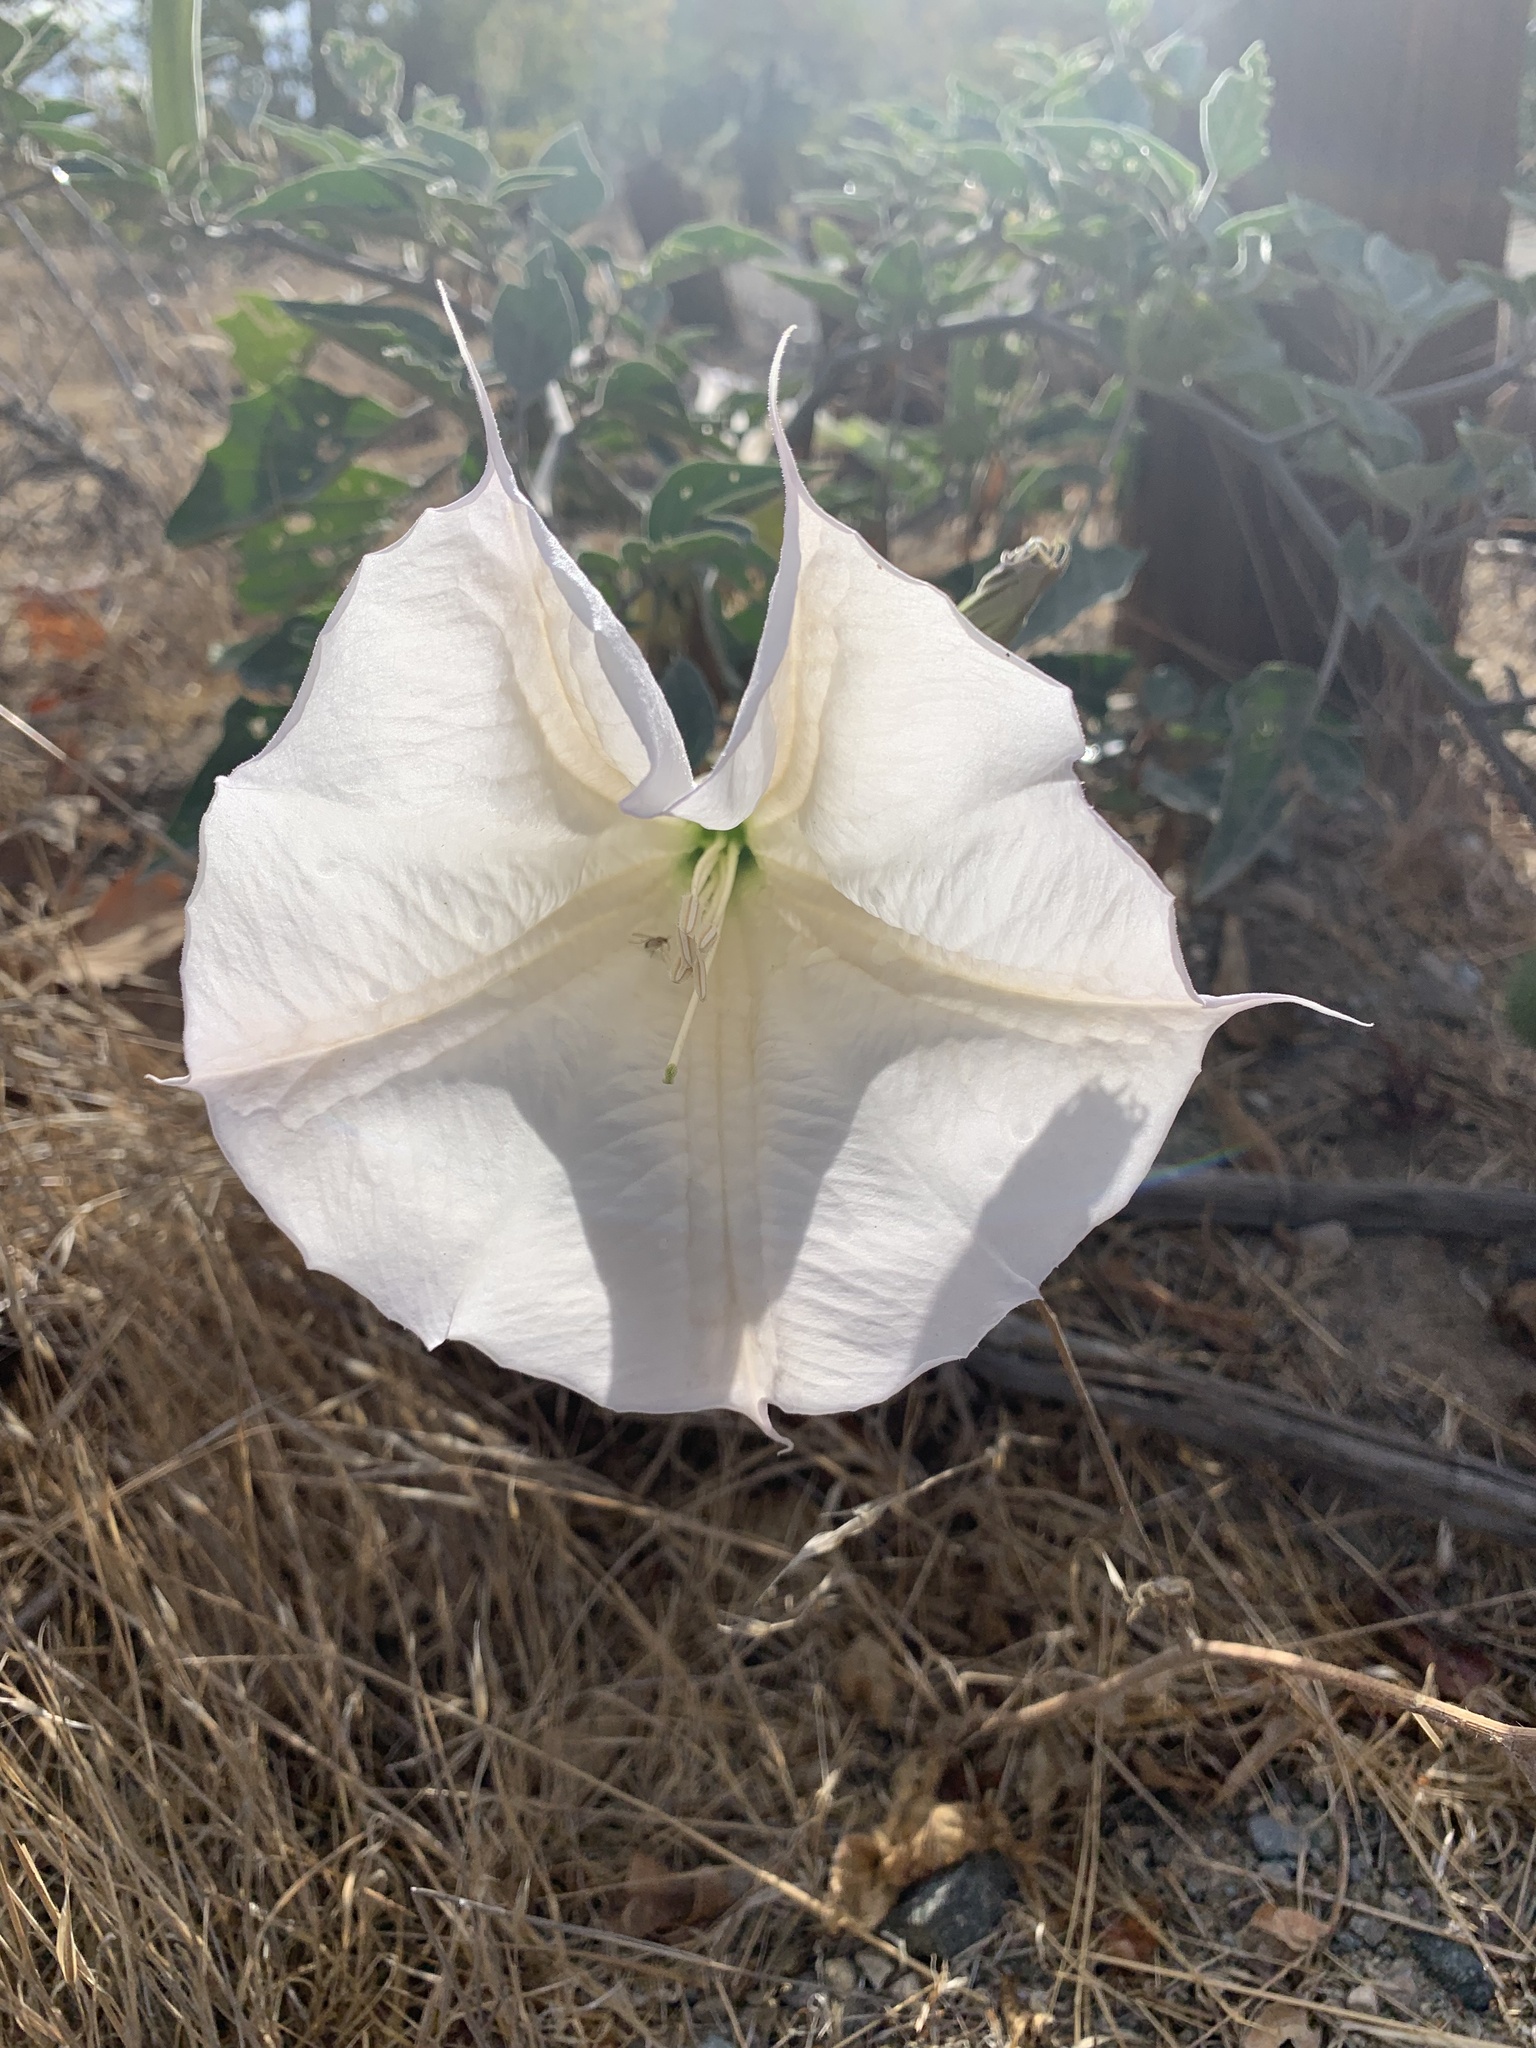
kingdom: Plantae
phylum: Tracheophyta
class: Magnoliopsida
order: Solanales
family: Solanaceae
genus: Datura
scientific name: Datura wrightii
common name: Sacred thorn-apple
